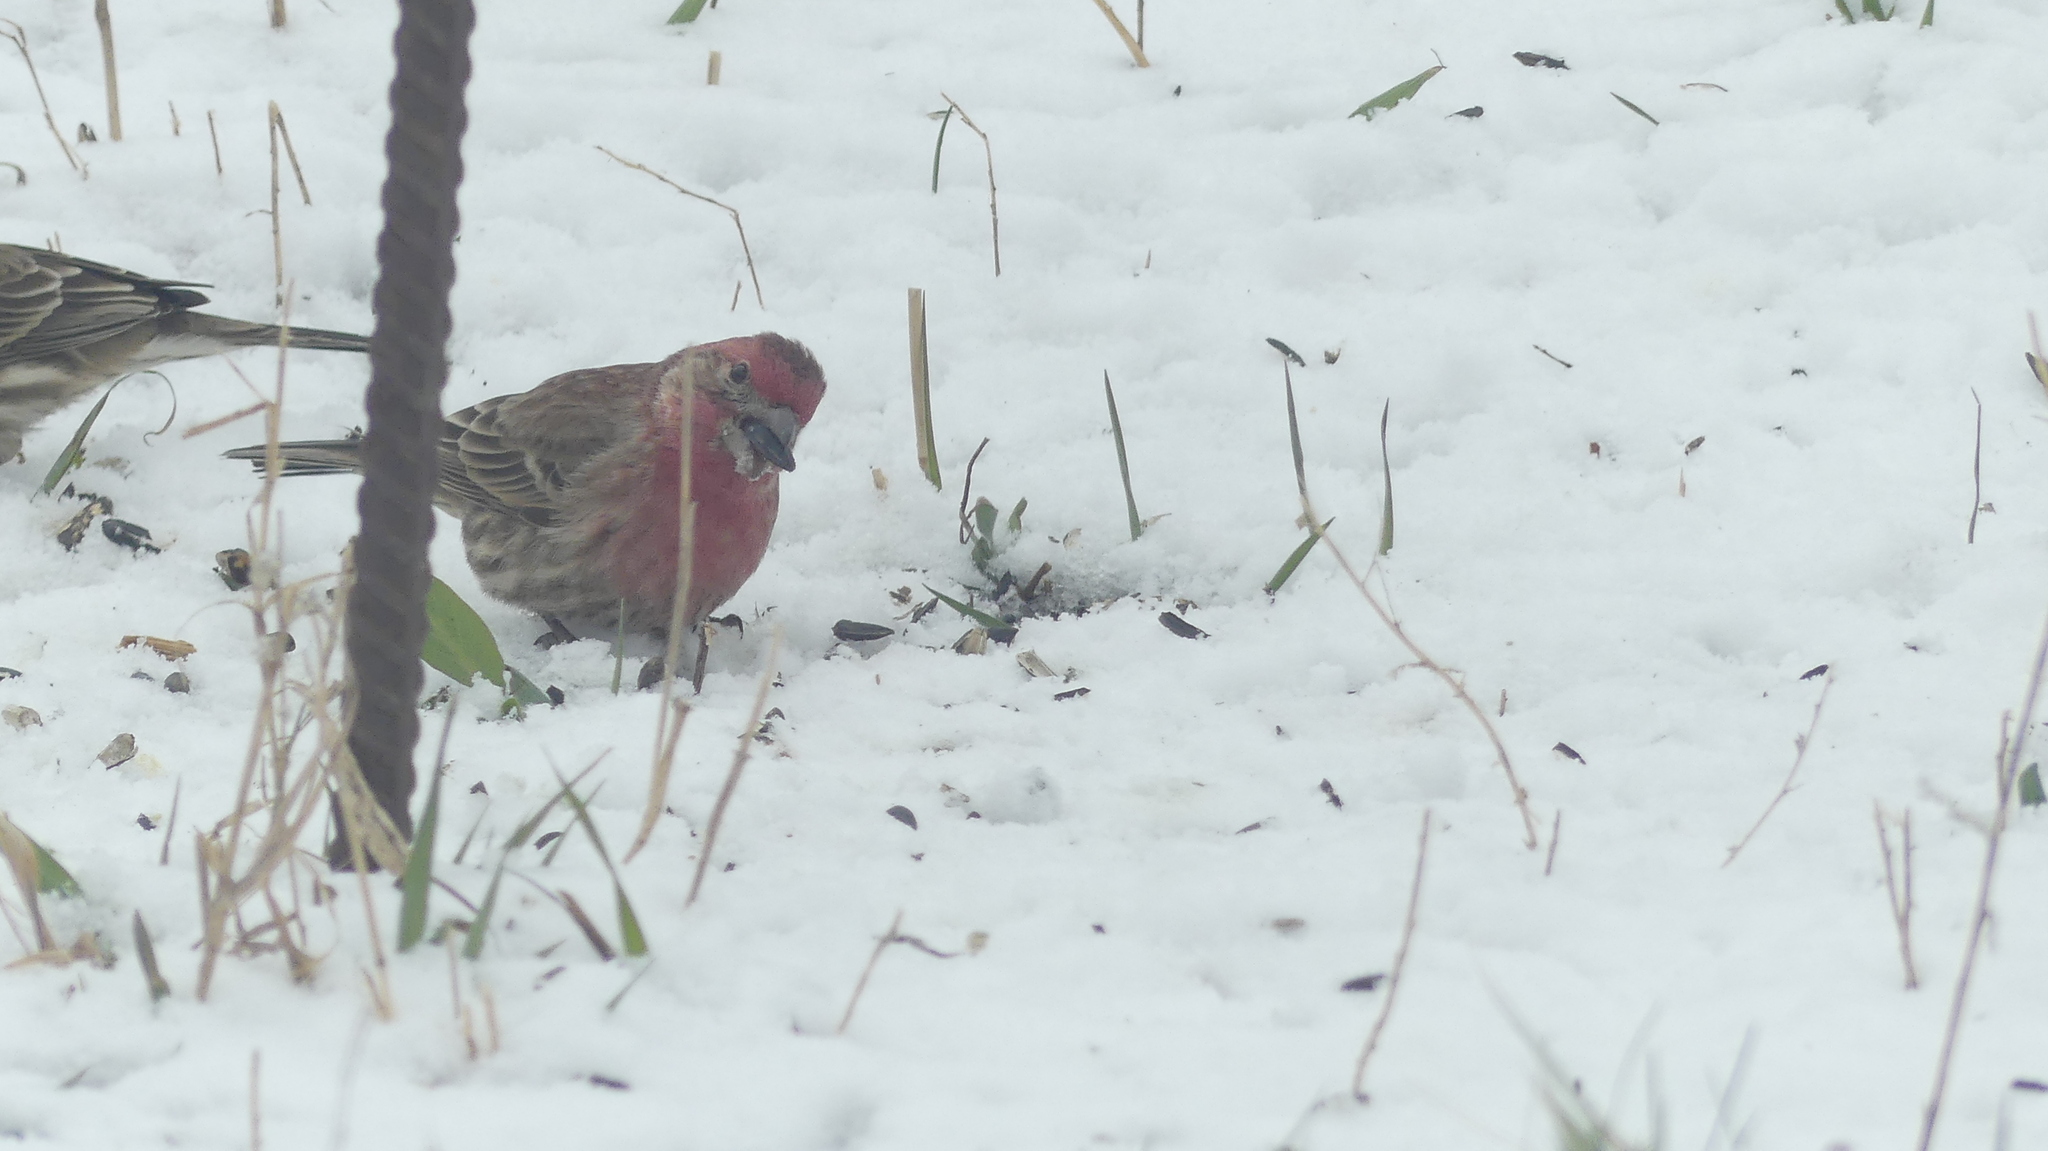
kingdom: Animalia
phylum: Chordata
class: Aves
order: Passeriformes
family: Fringillidae
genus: Haemorhous
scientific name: Haemorhous mexicanus
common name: House finch
